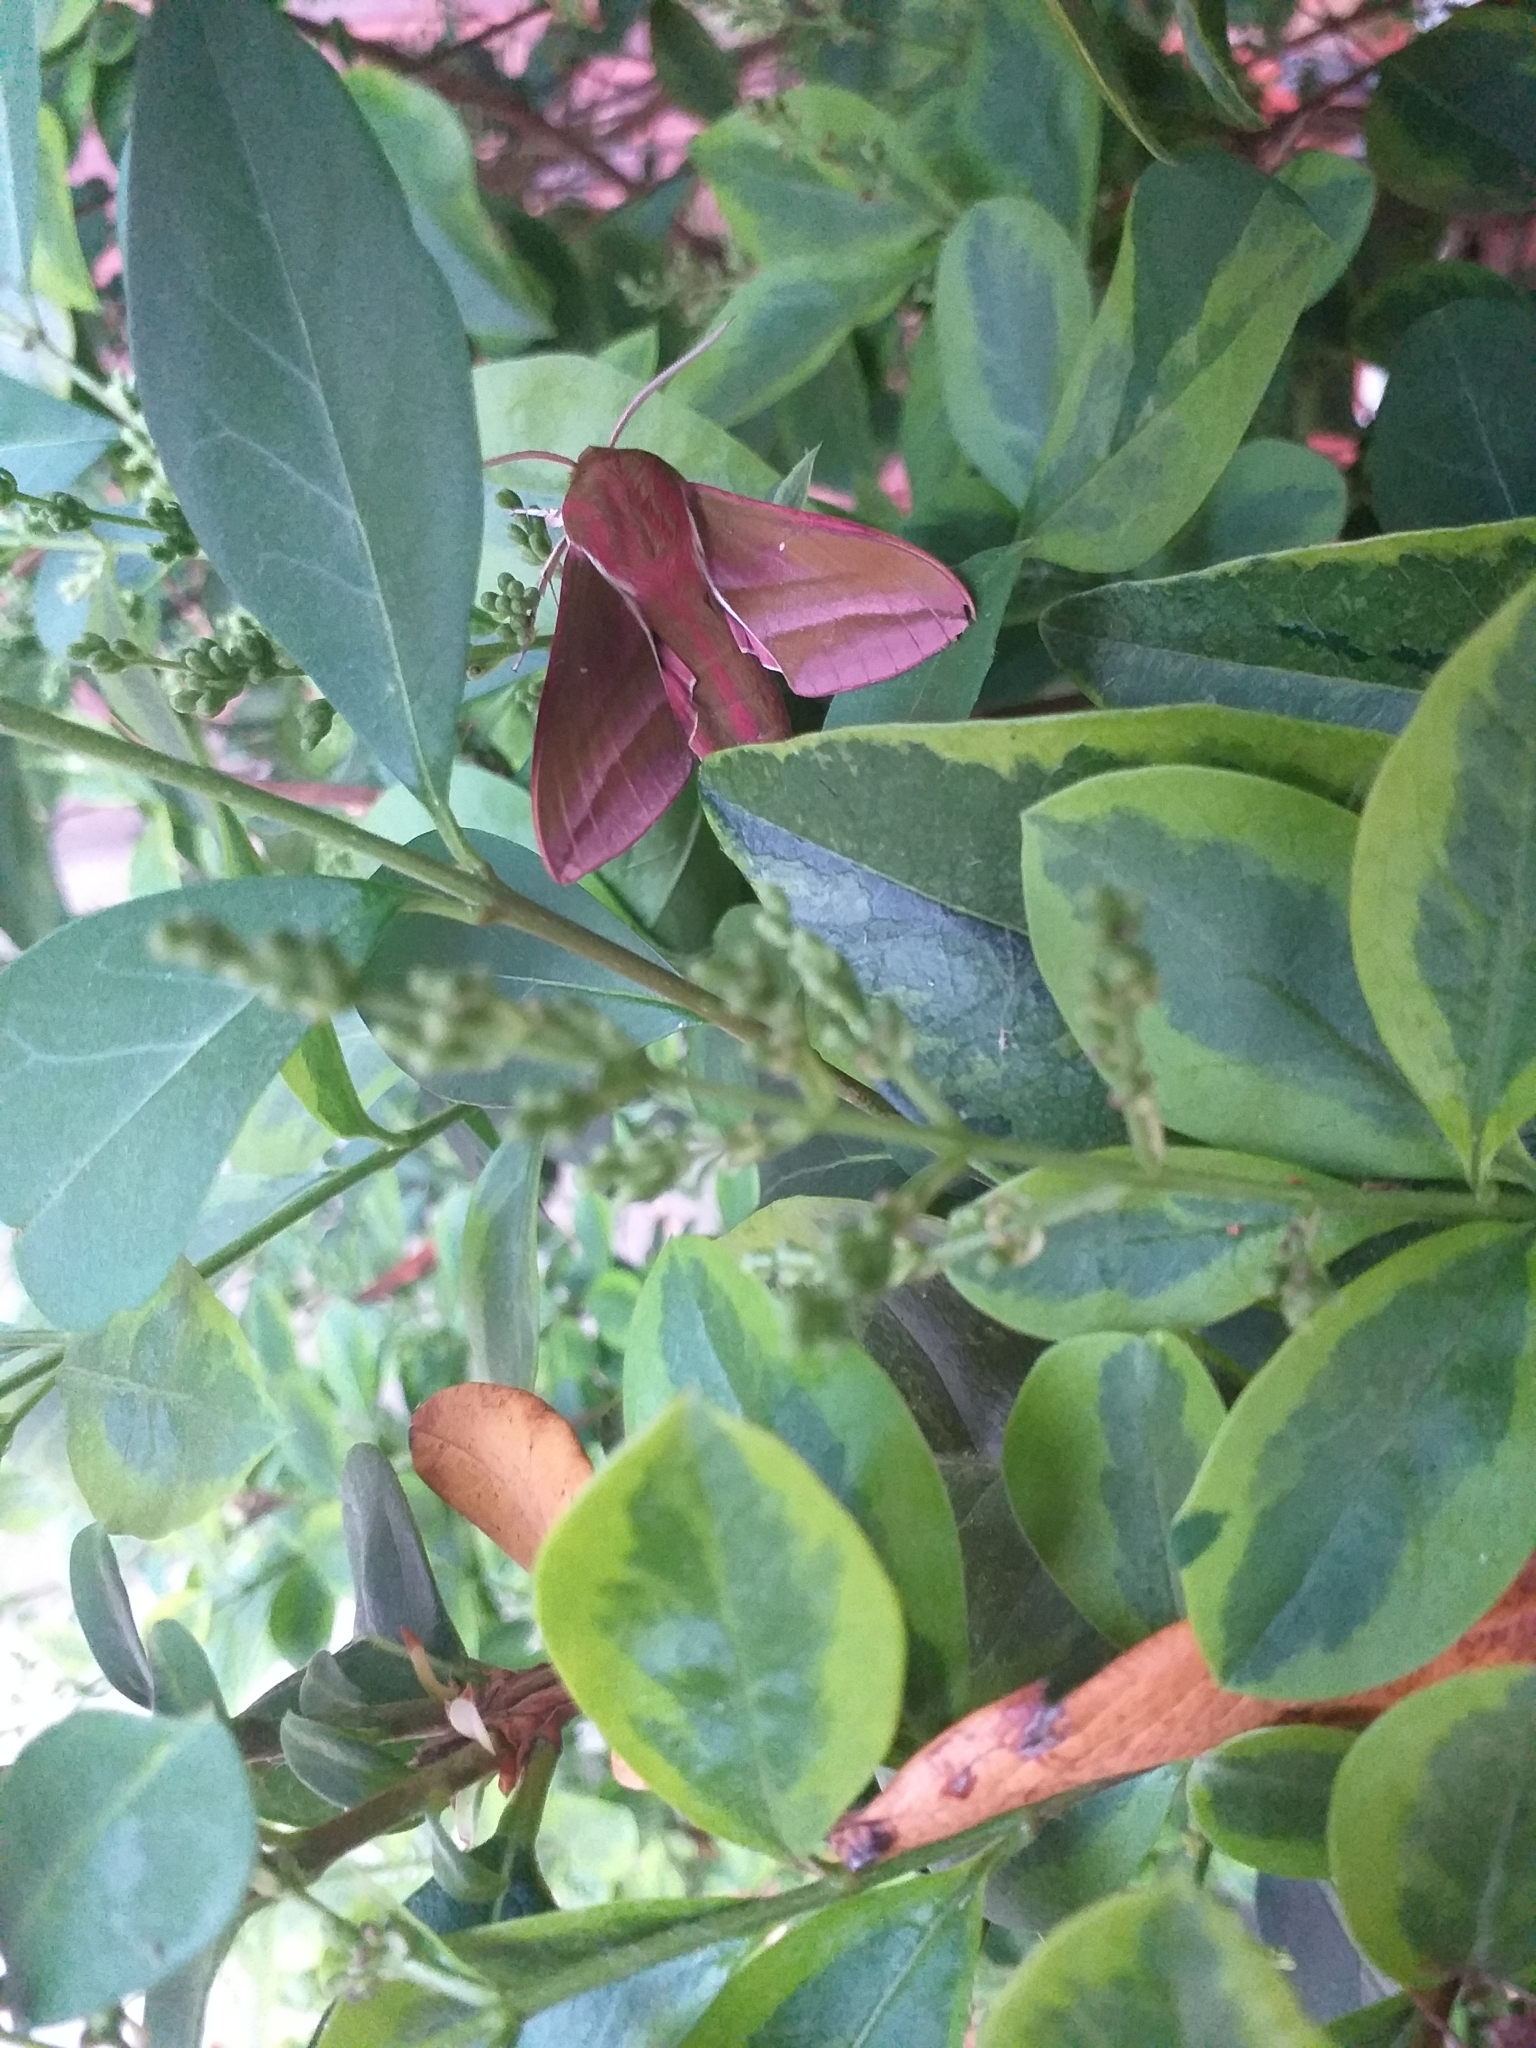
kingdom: Animalia
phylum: Arthropoda
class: Insecta
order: Lepidoptera
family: Sphingidae
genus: Deilephila
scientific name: Deilephila elpenor
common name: Elephant hawk-moth
